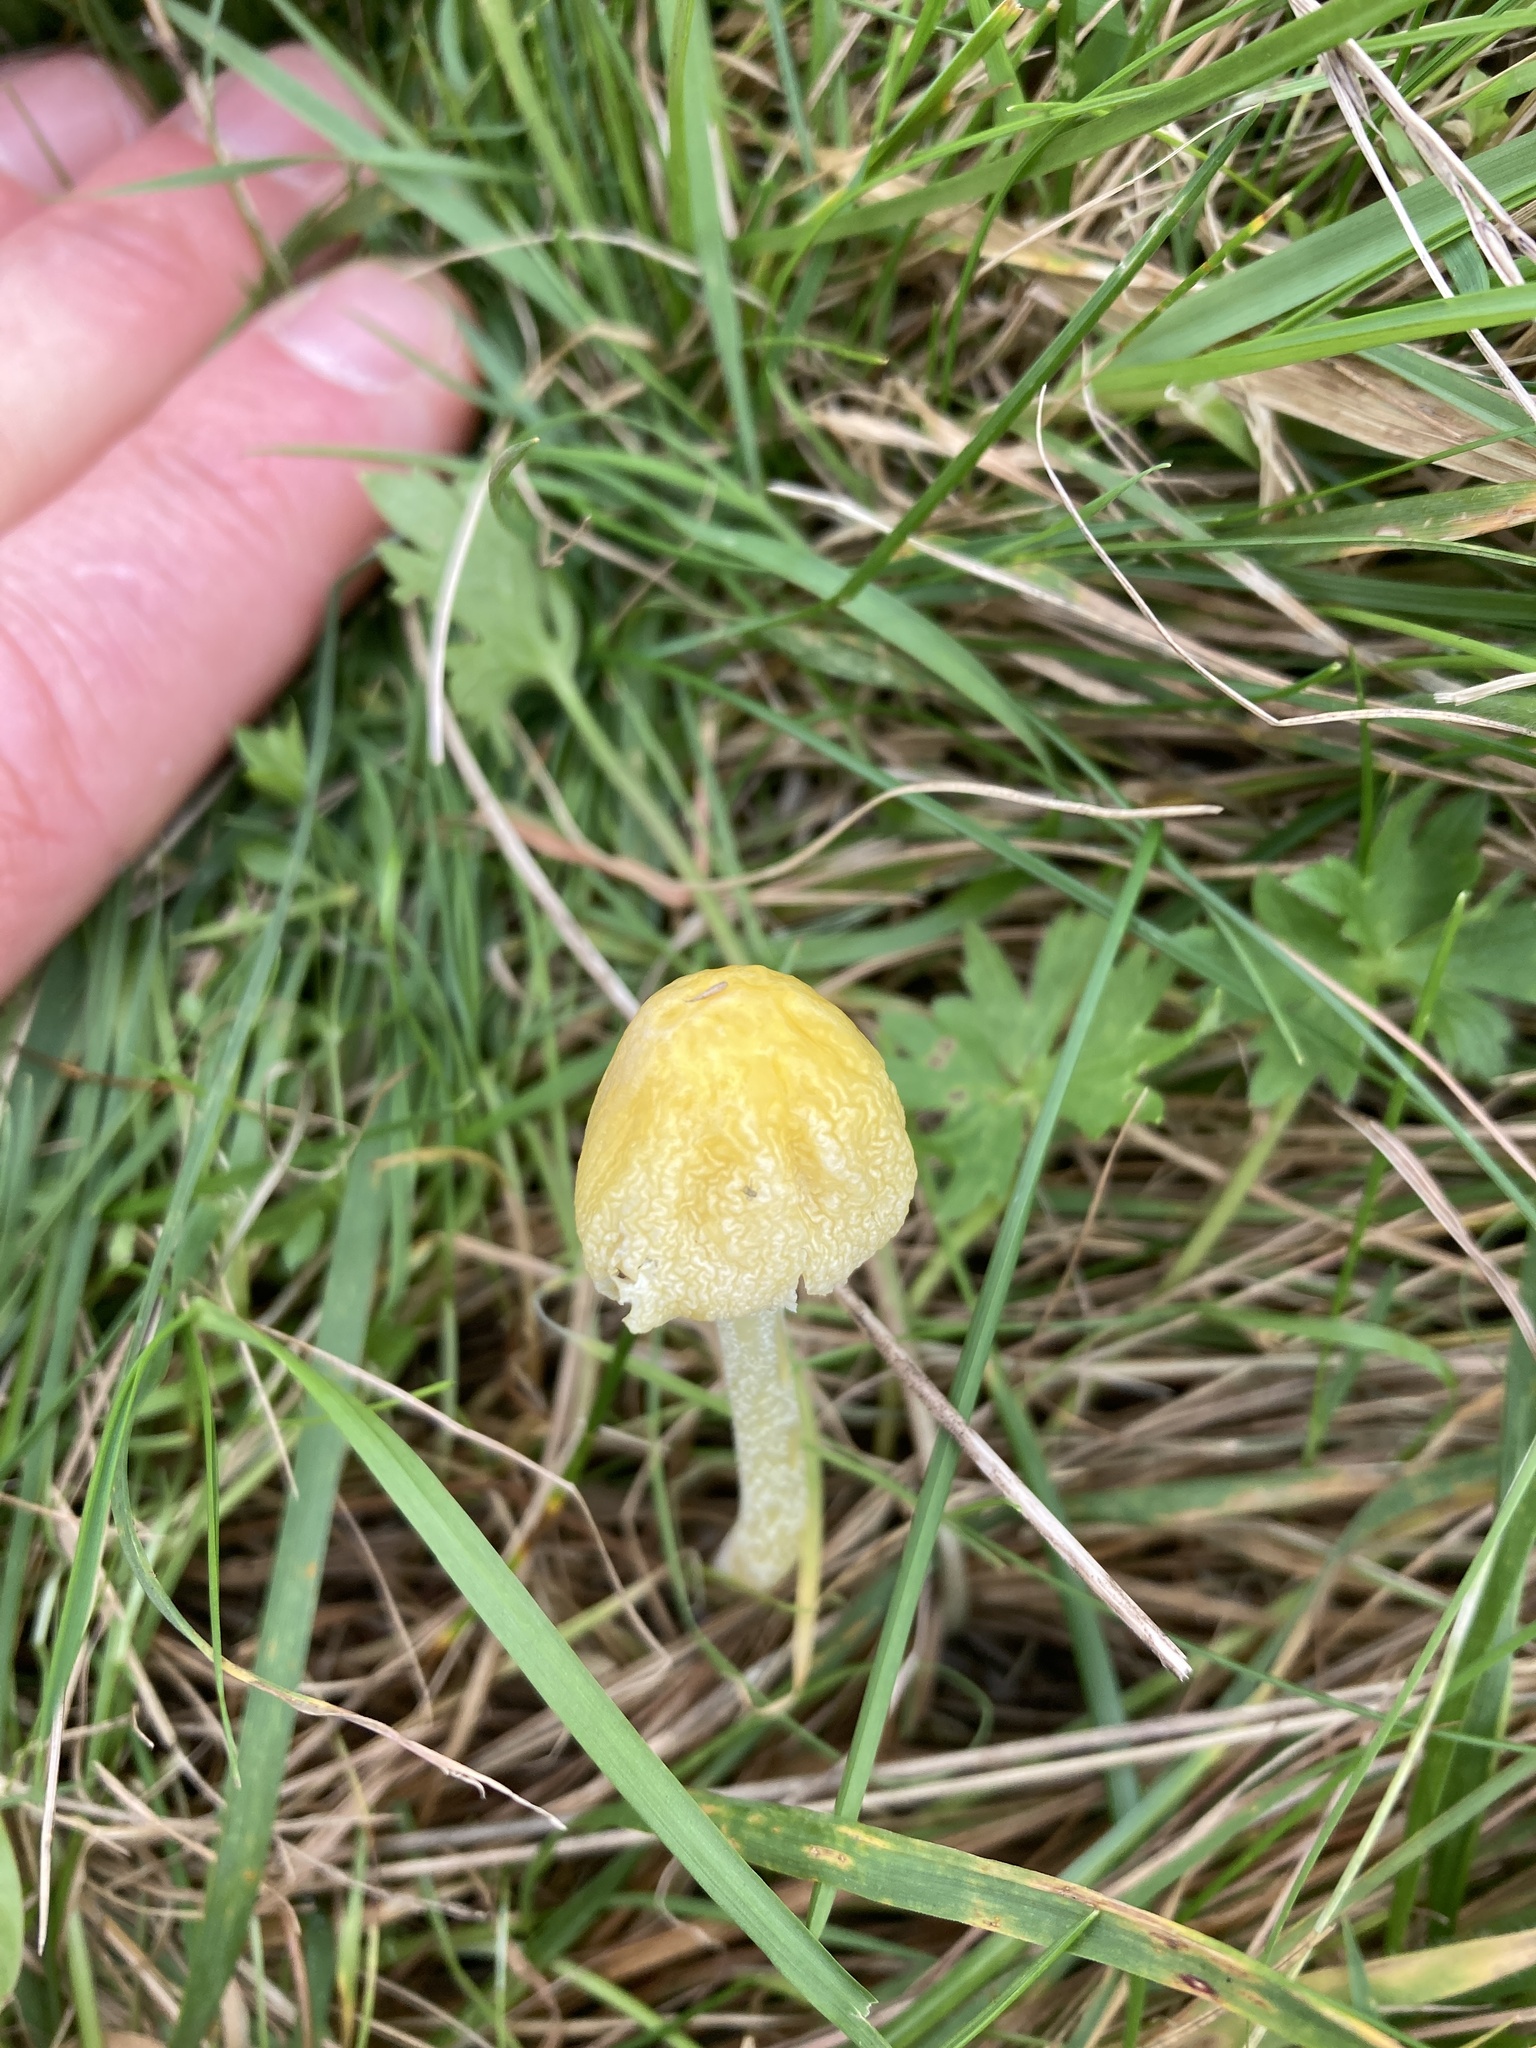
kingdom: Fungi
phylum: Basidiomycota
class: Agaricomycetes
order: Agaricales
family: Bolbitiaceae
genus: Bolbitius
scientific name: Bolbitius titubans
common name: Yellow fieldcap
